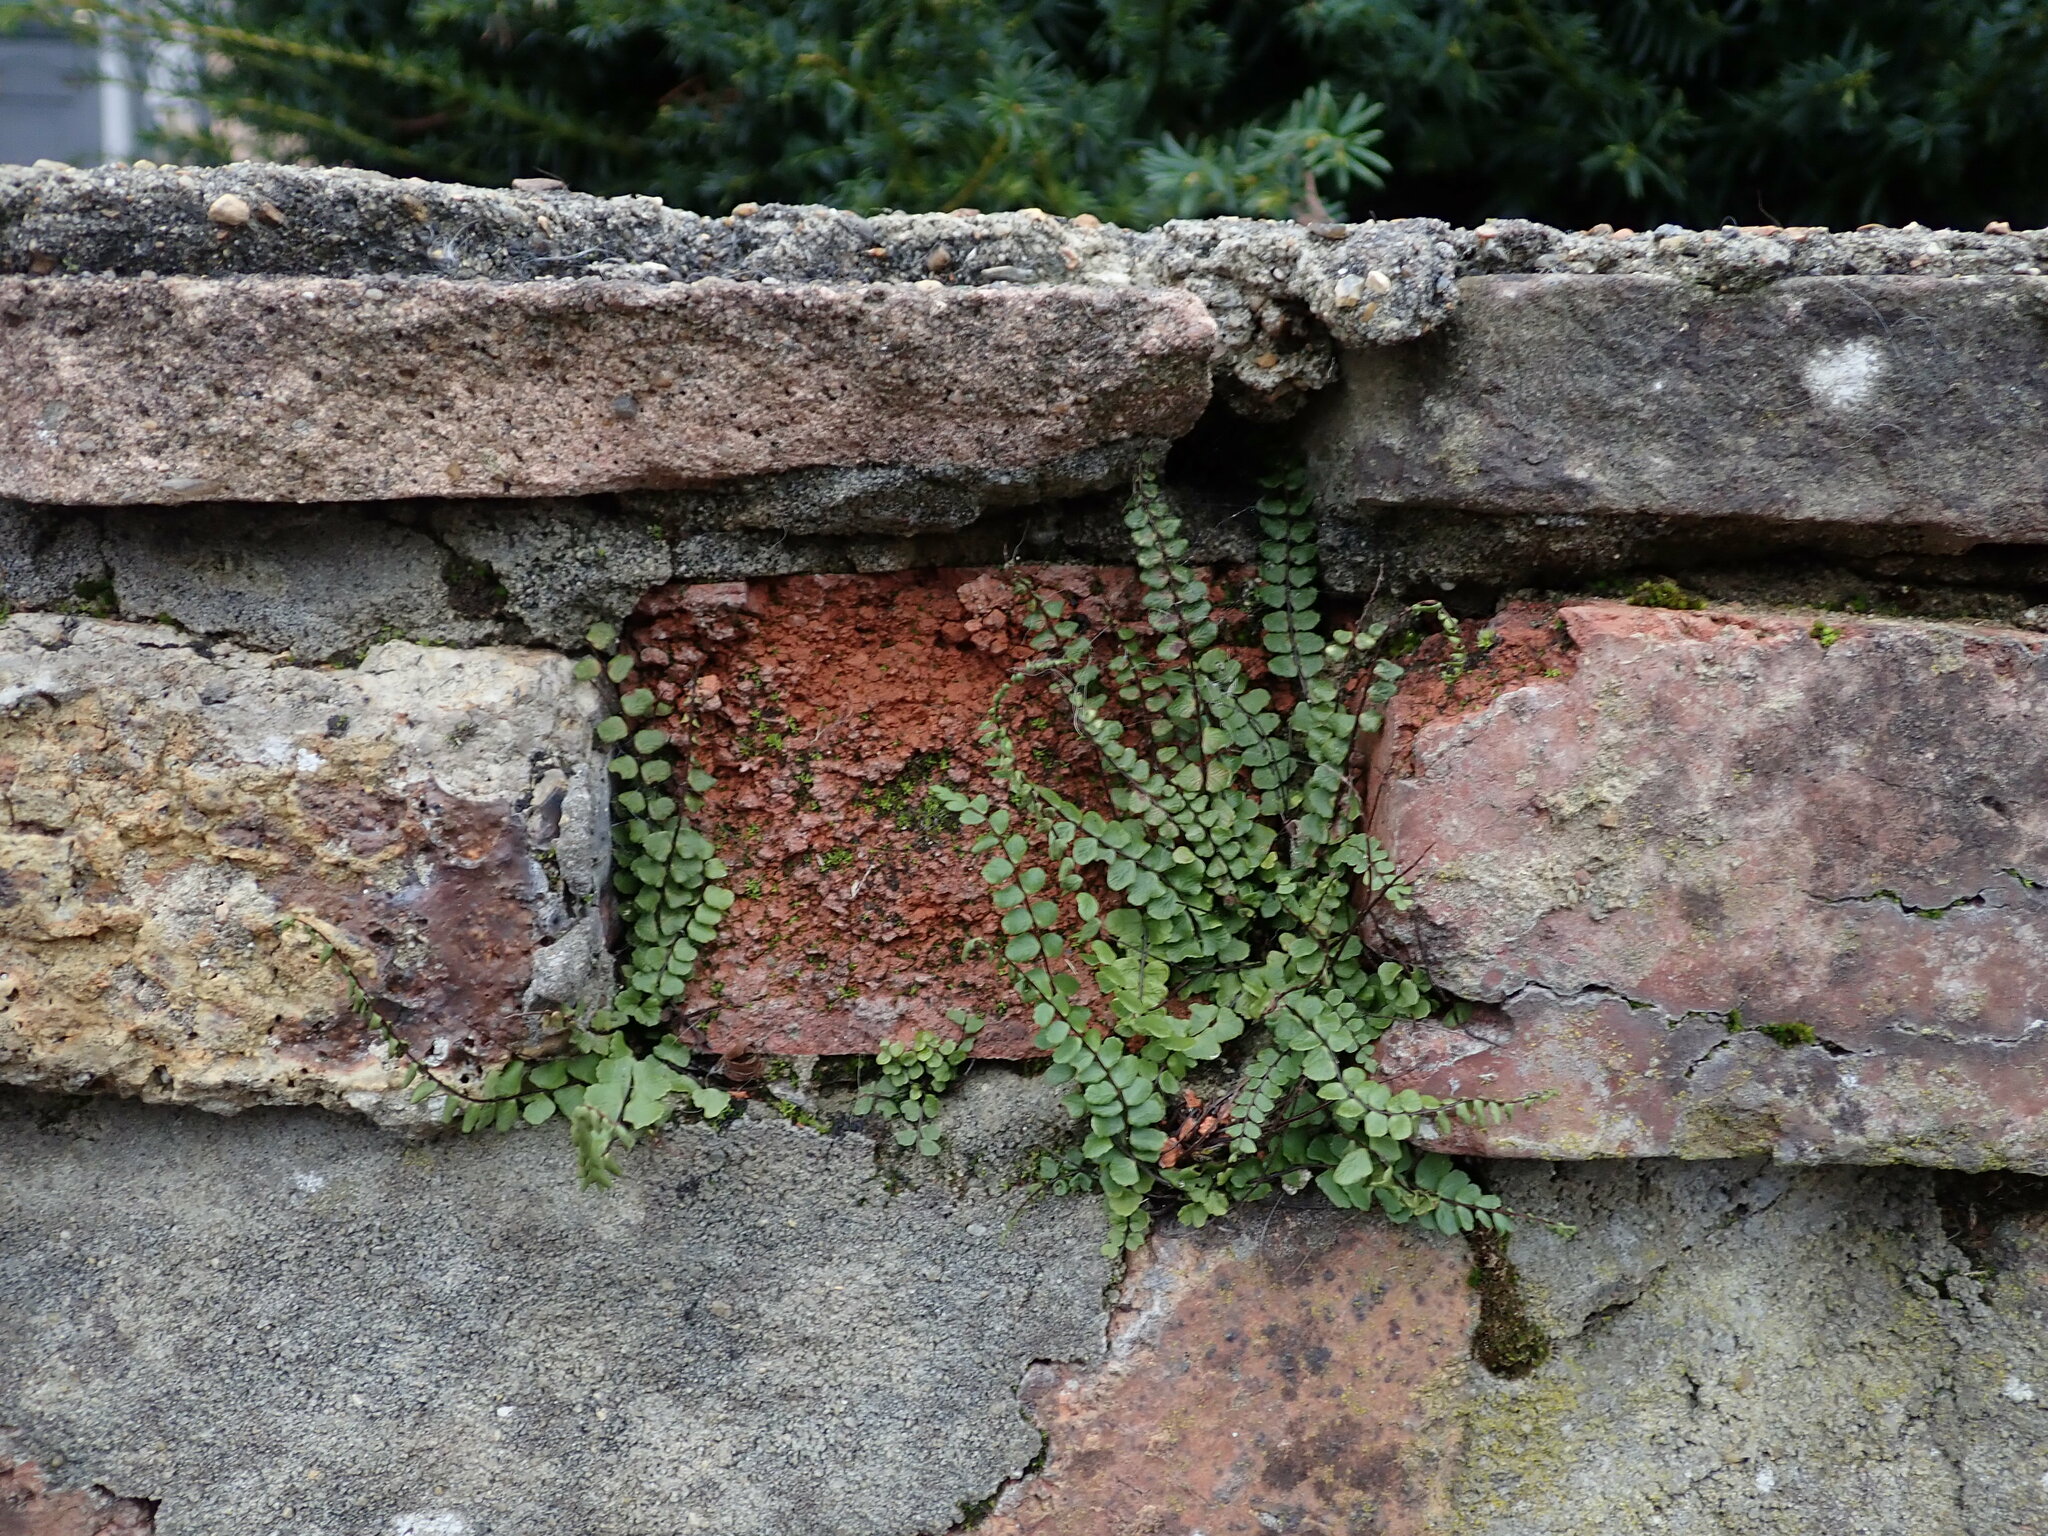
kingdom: Plantae
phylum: Tracheophyta
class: Polypodiopsida
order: Polypodiales
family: Aspleniaceae
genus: Asplenium
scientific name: Asplenium trichomanes
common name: Maidenhair spleenwort
